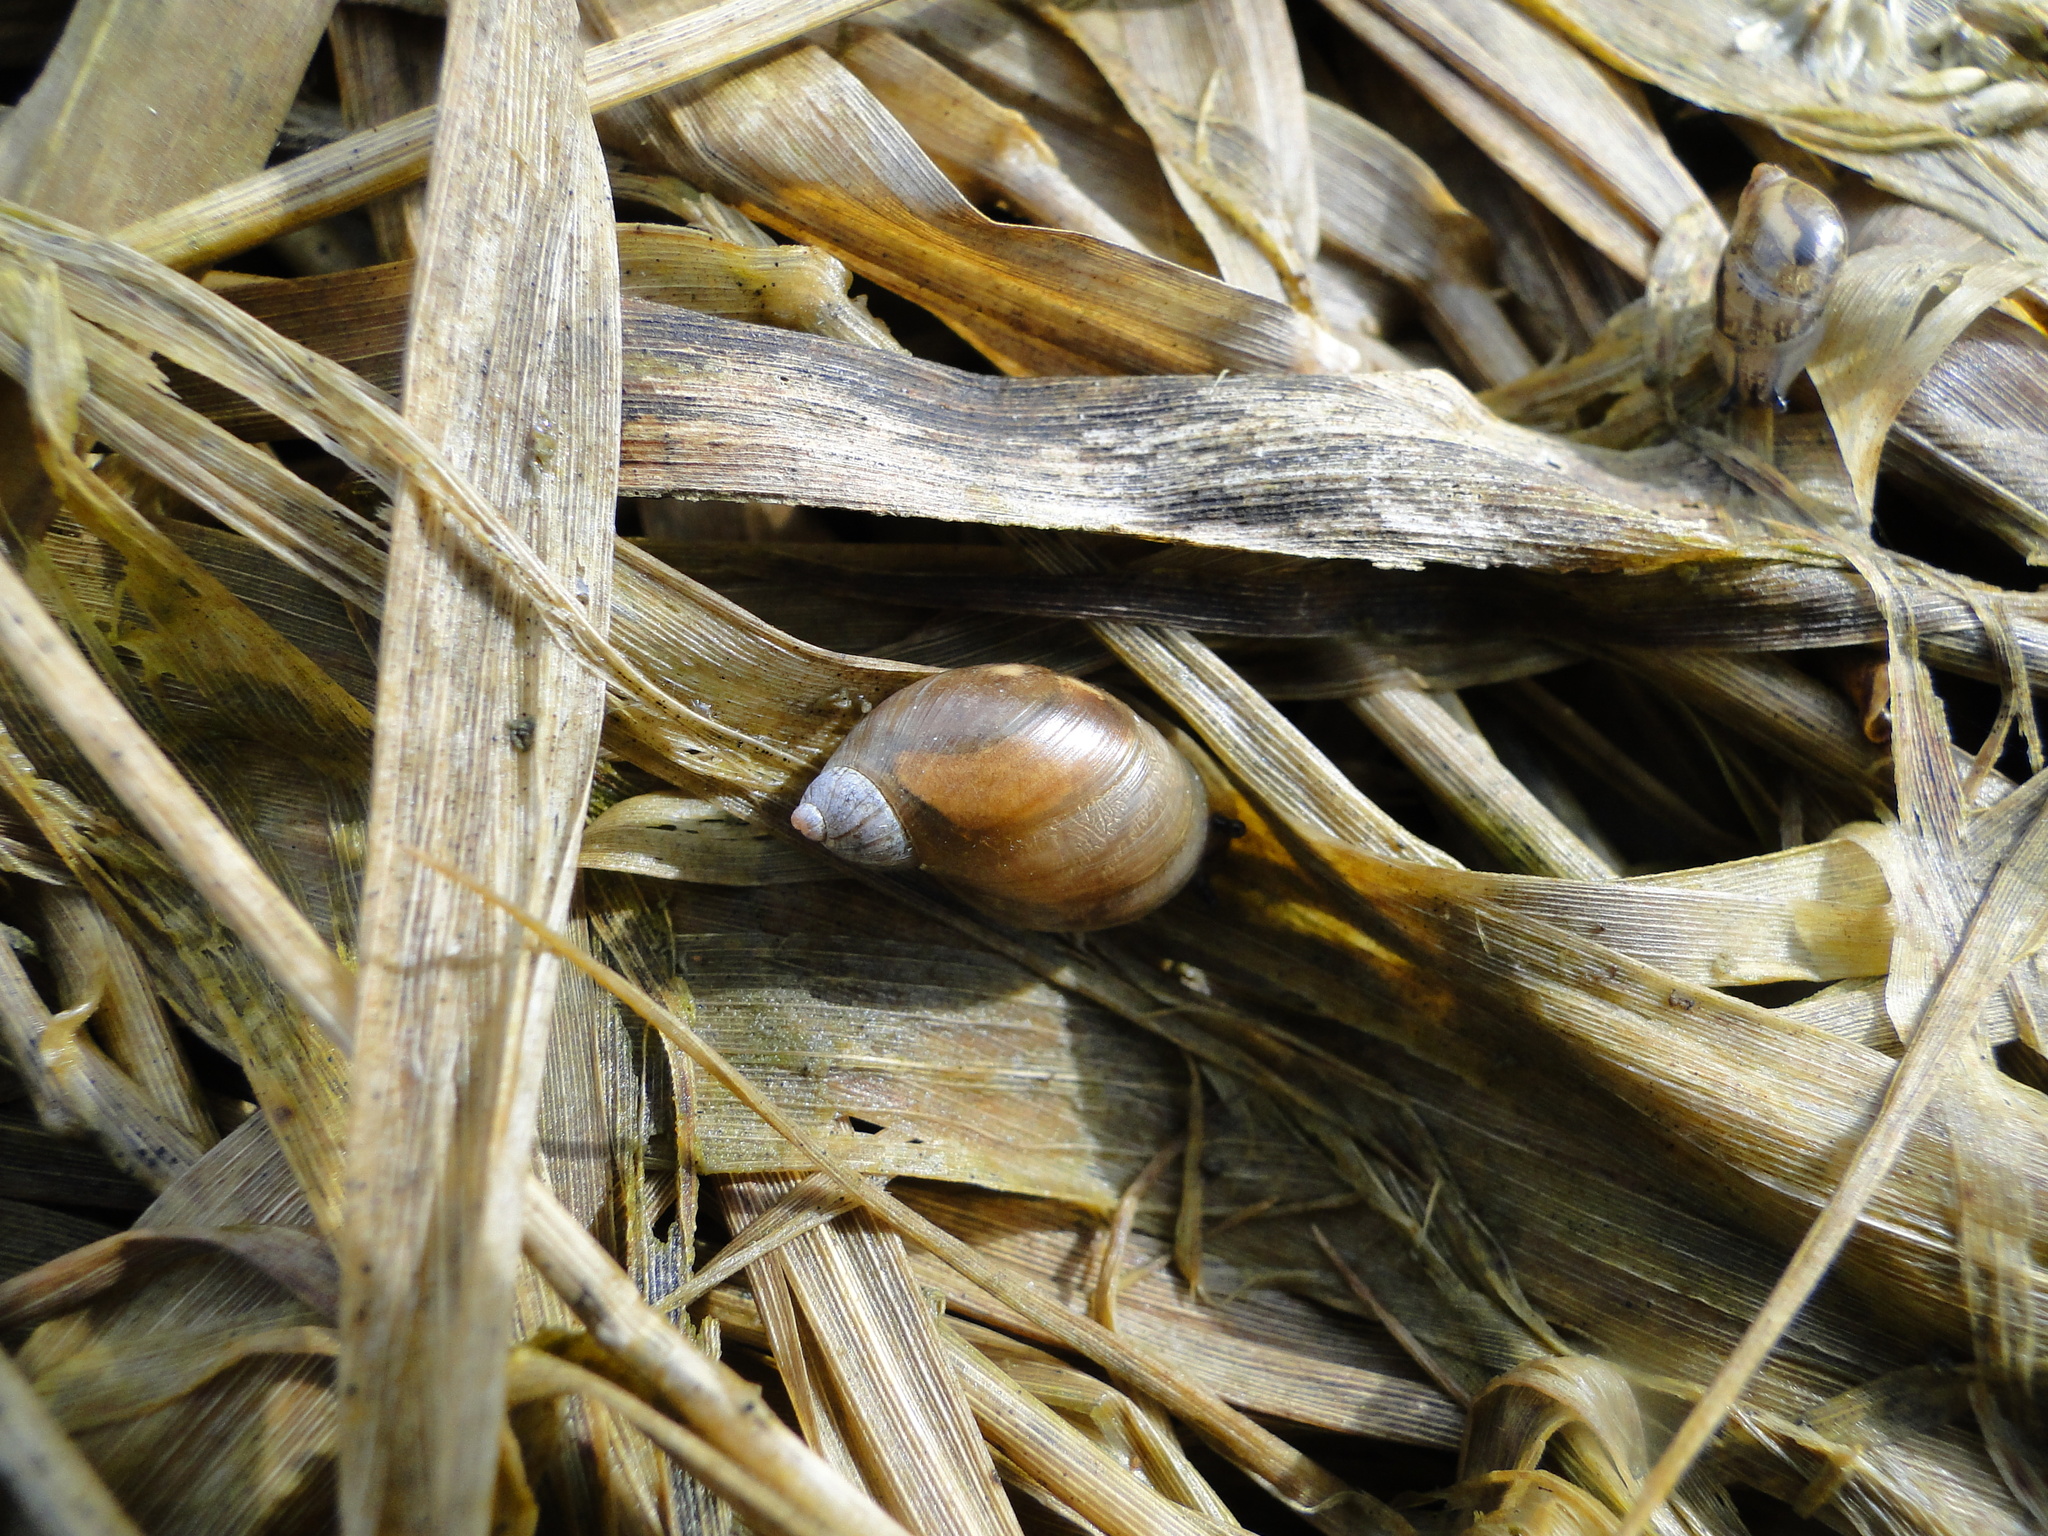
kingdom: Animalia
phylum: Mollusca
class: Gastropoda
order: Stylommatophora
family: Succineidae
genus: Succinea
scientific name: Succinea putris
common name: European ambersnail
